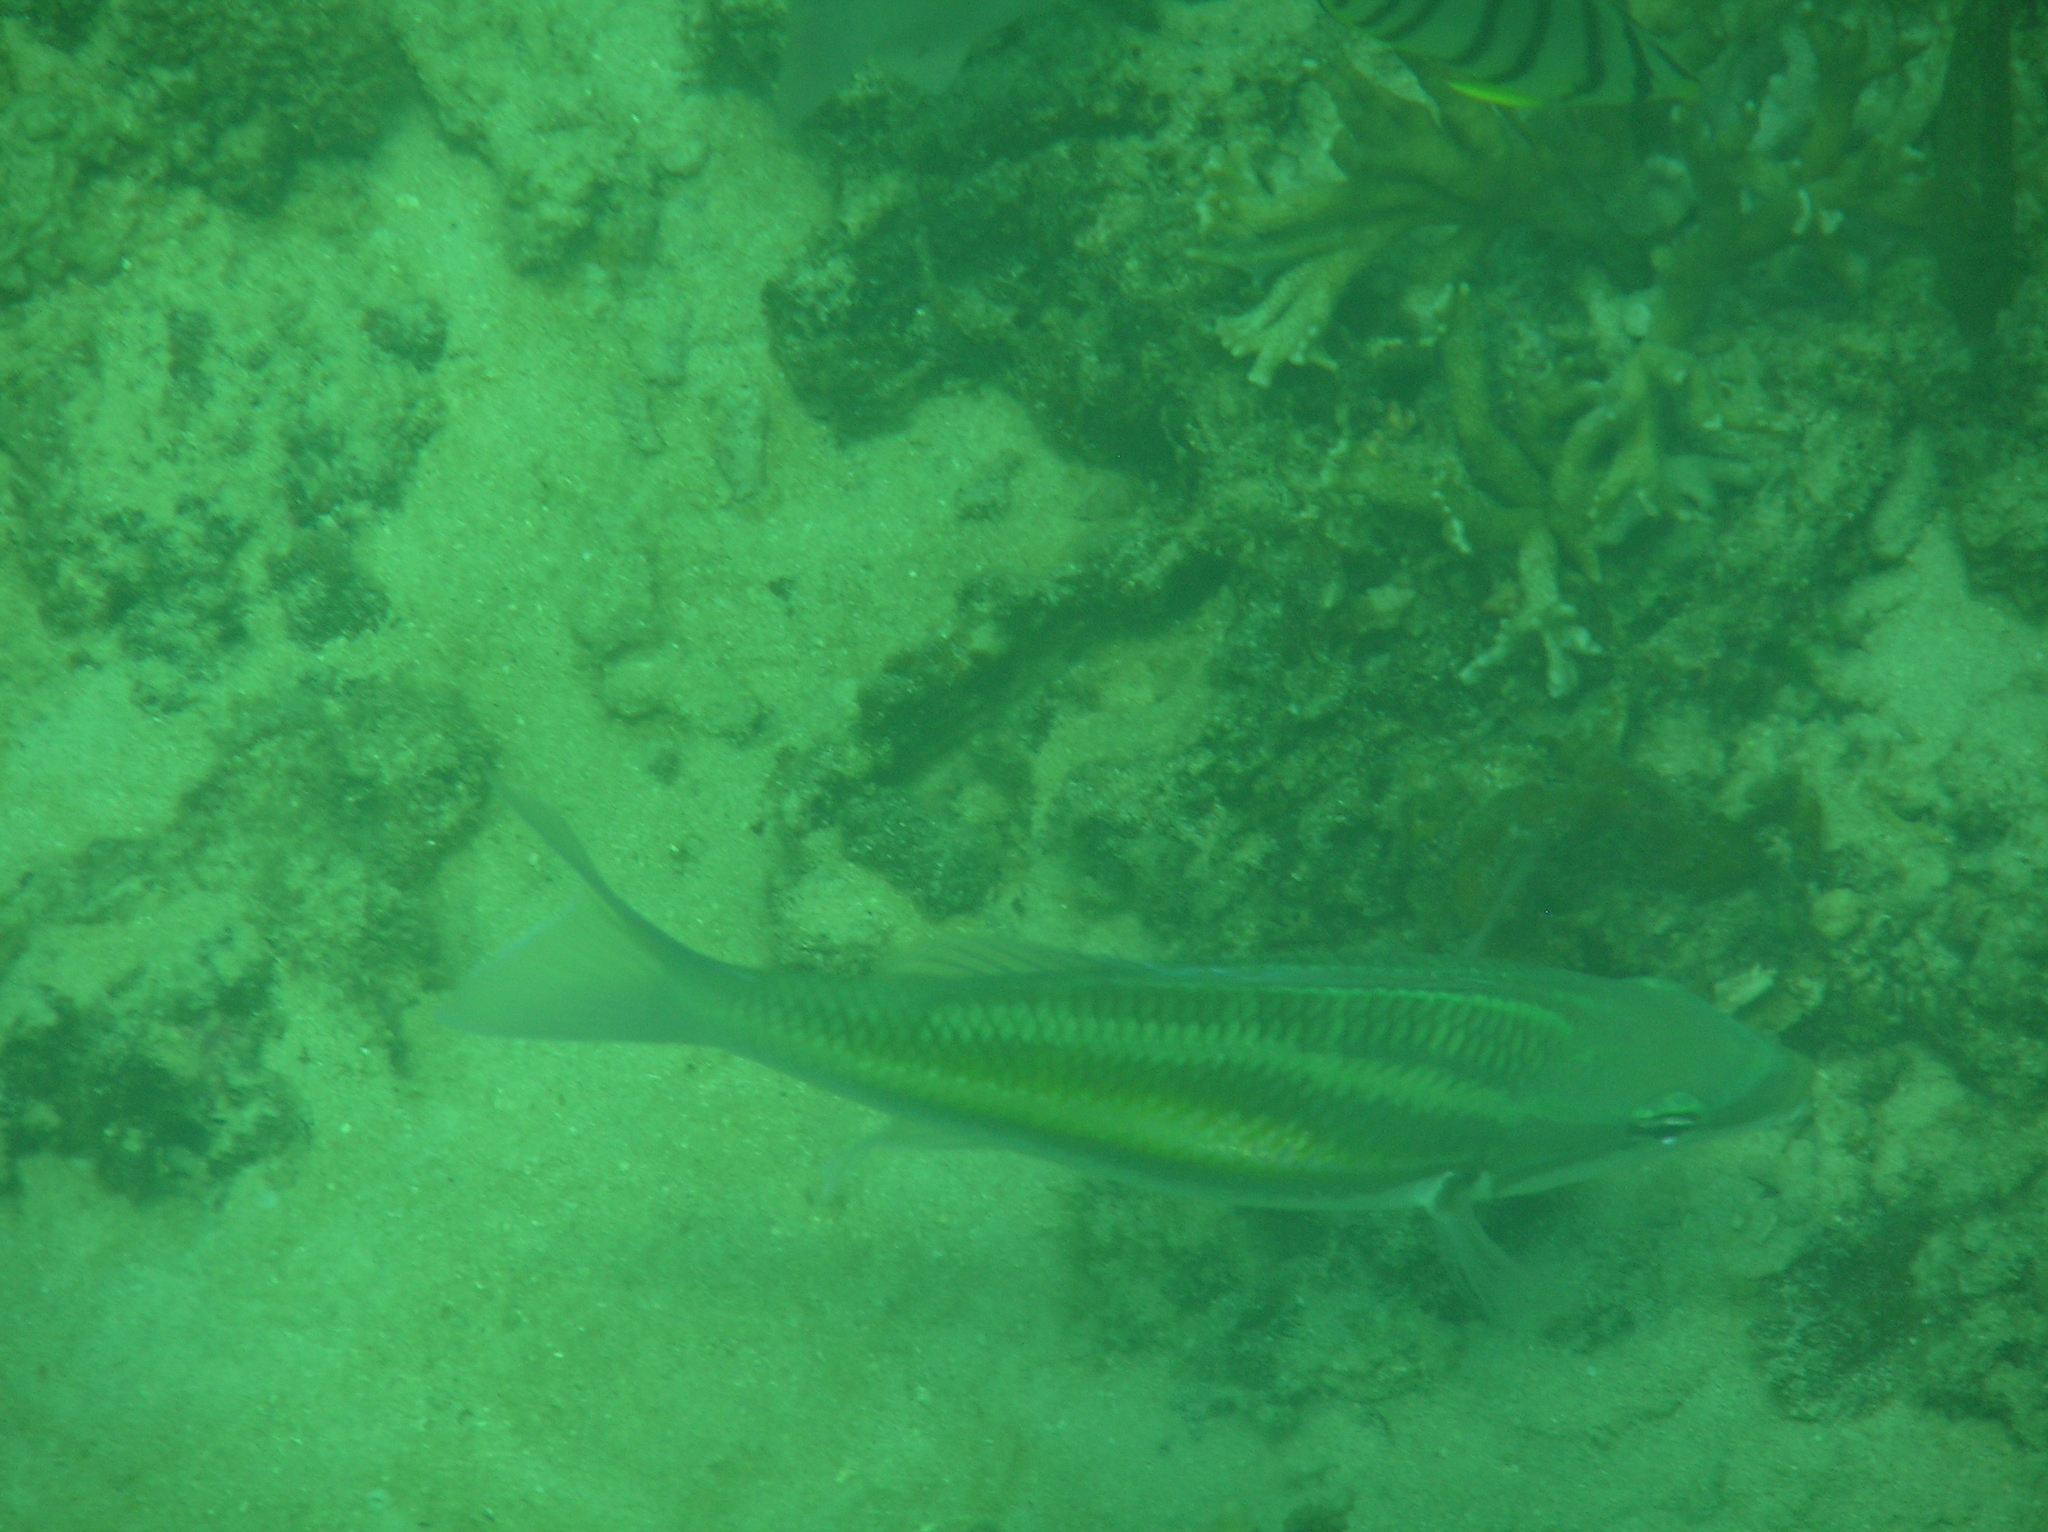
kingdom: Animalia
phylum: Chordata
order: Perciformes
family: Nemipteridae
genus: Pentapodus
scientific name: Pentapodus trivittatus
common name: Three-striped whiptail
